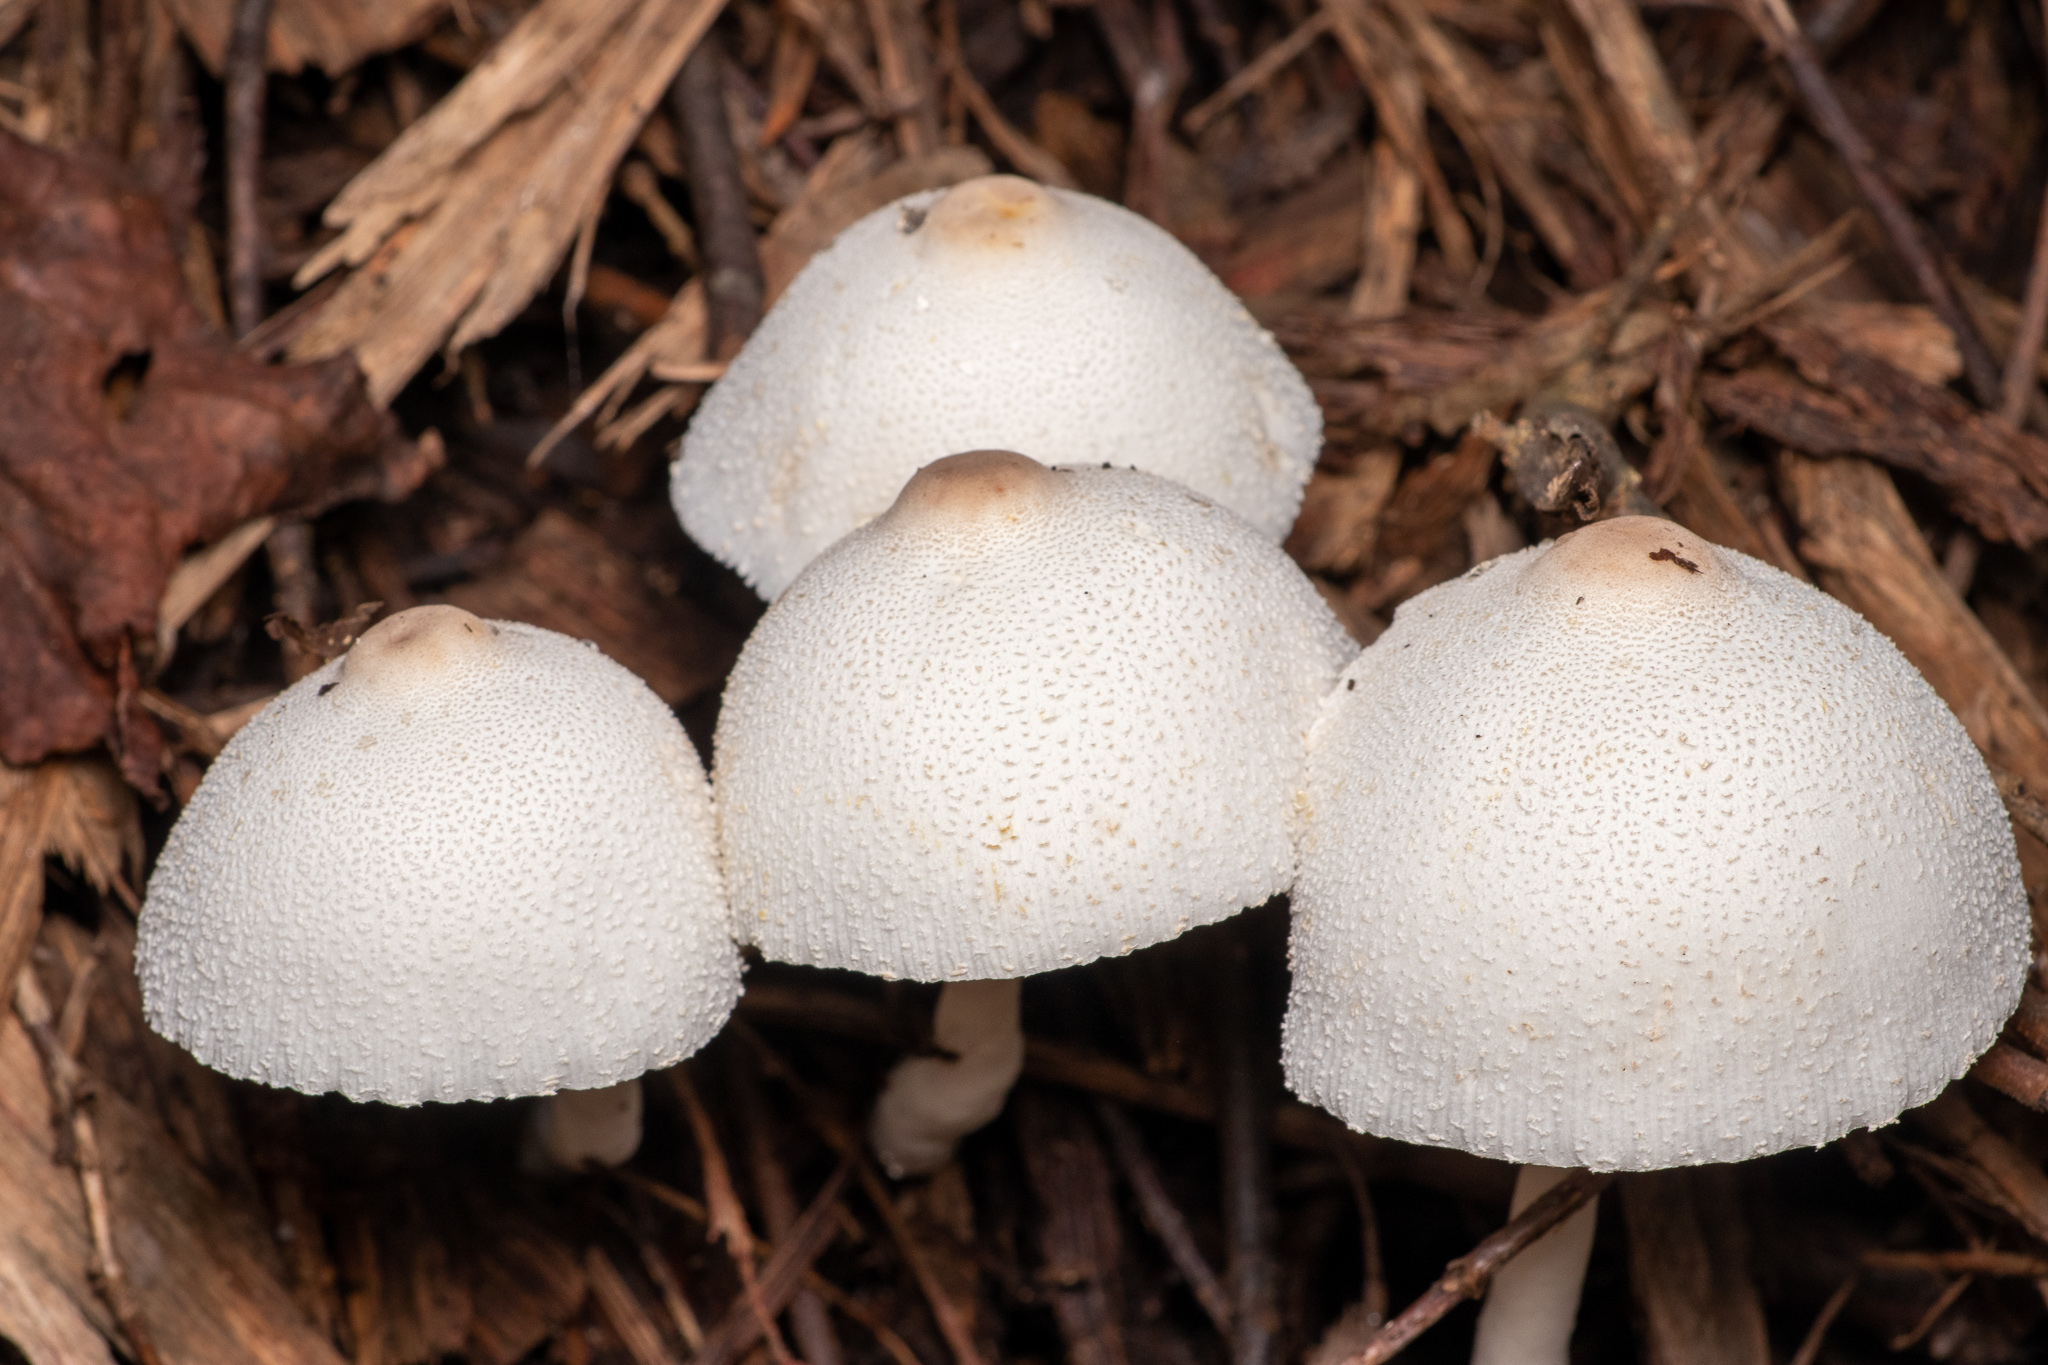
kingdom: Fungi
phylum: Basidiomycota
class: Agaricomycetes
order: Agaricales
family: Agaricaceae
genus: Leucocoprinus
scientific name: Leucocoprinus cepistipes
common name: Onion-stalk parasol
